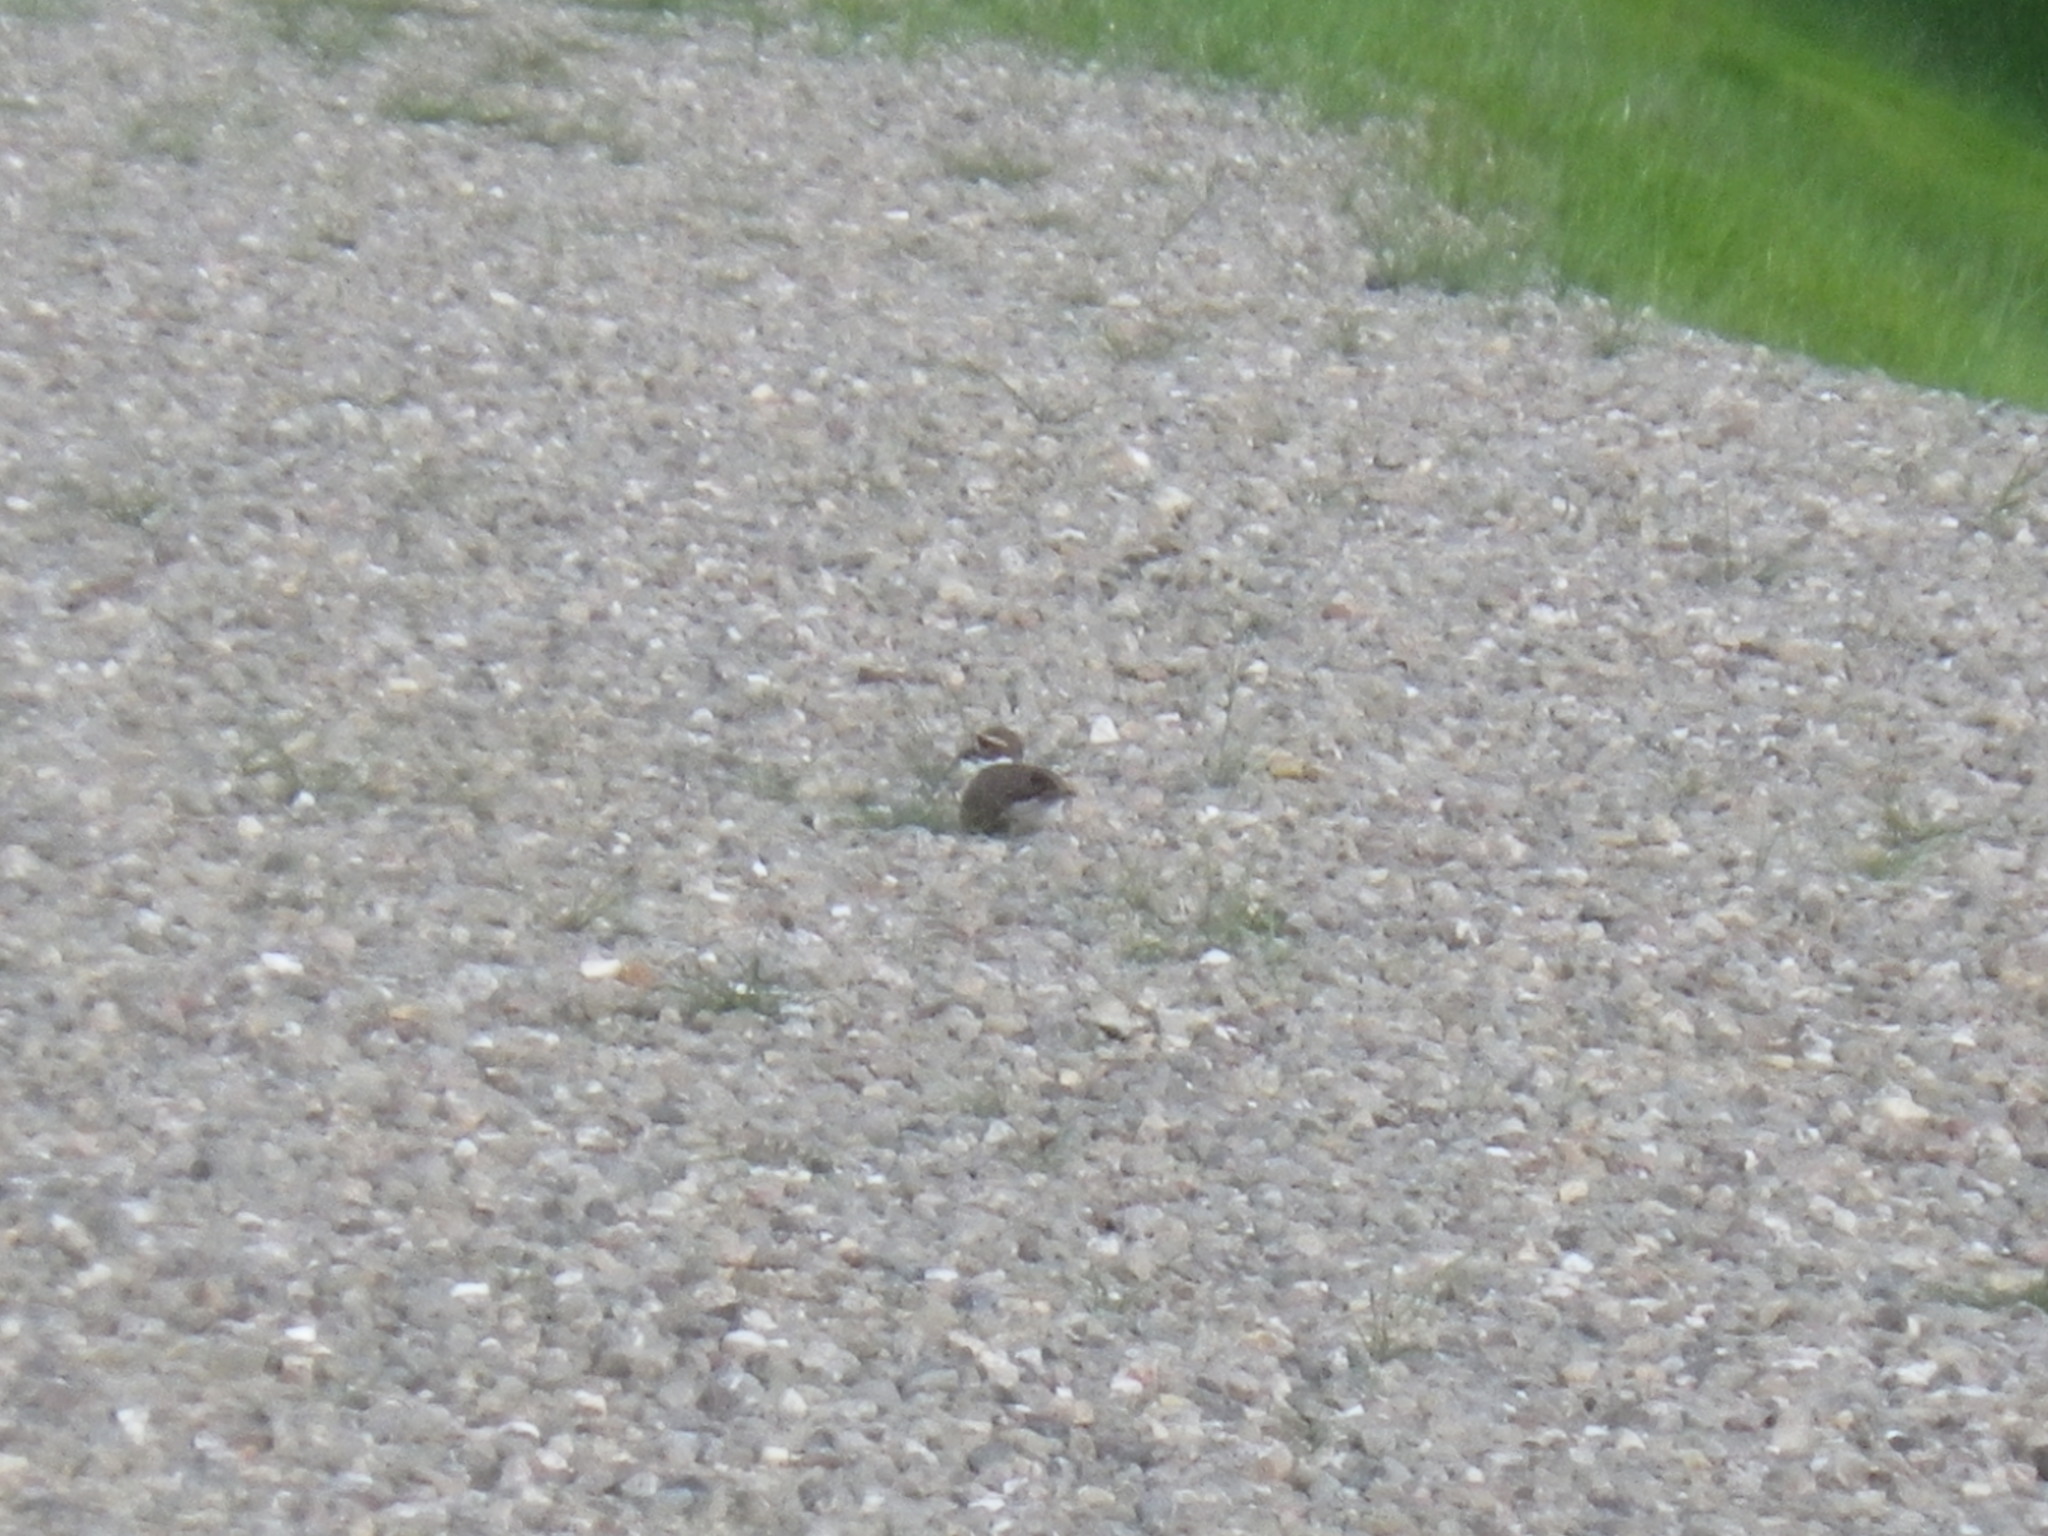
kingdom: Animalia
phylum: Chordata
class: Aves
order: Charadriiformes
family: Charadriidae
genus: Charadrius
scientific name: Charadrius vociferus
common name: Killdeer
